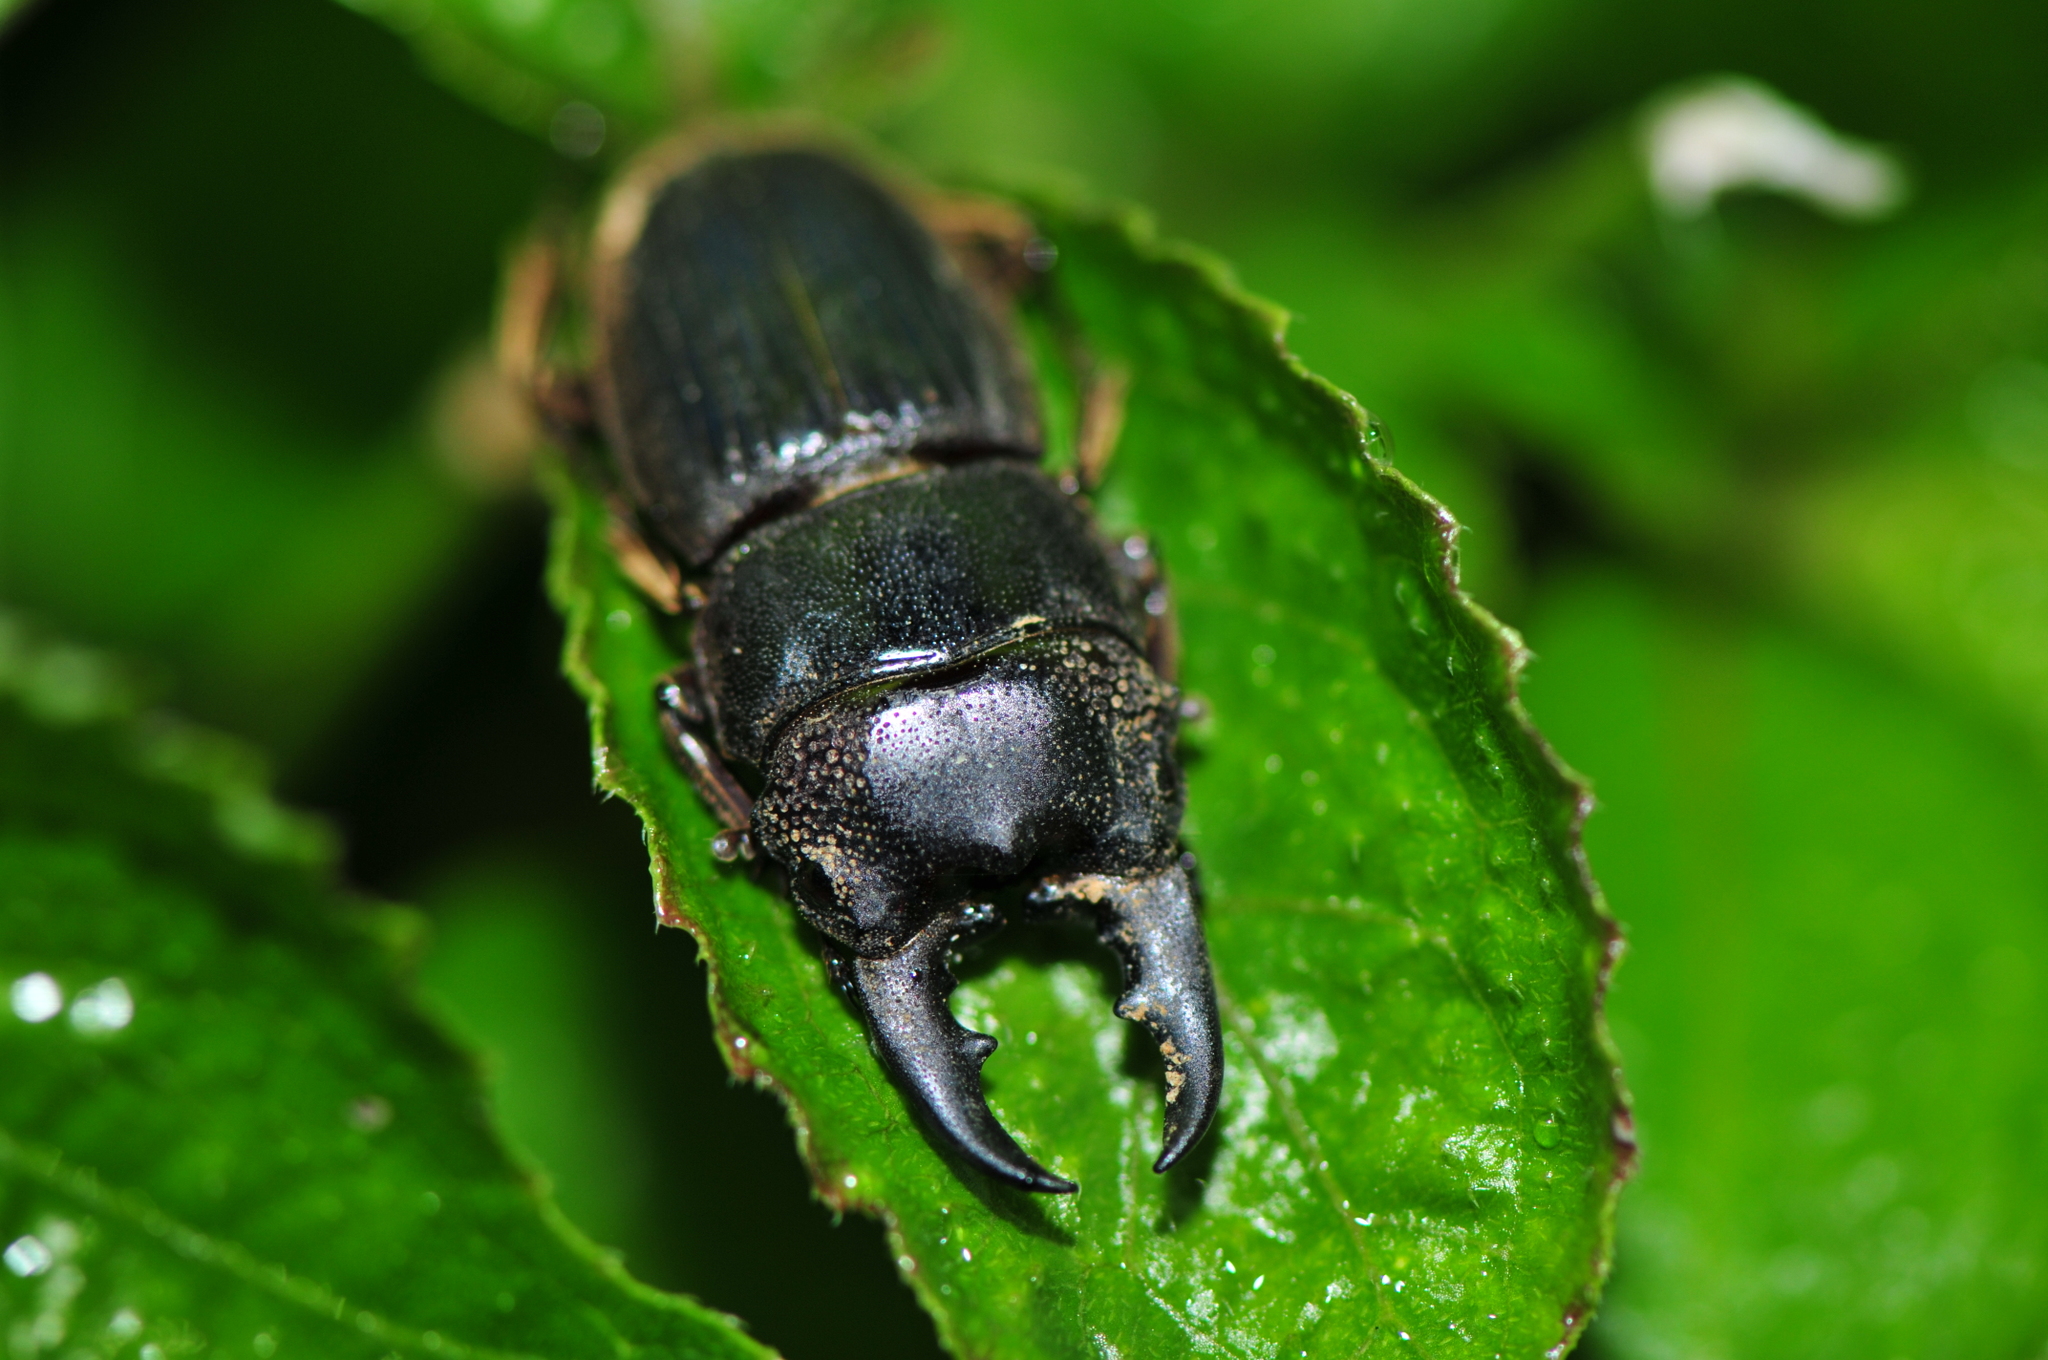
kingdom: Animalia
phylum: Arthropoda
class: Insecta
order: Coleoptera
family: Lucanidae
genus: Aegus
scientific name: Aegus acuminatus
